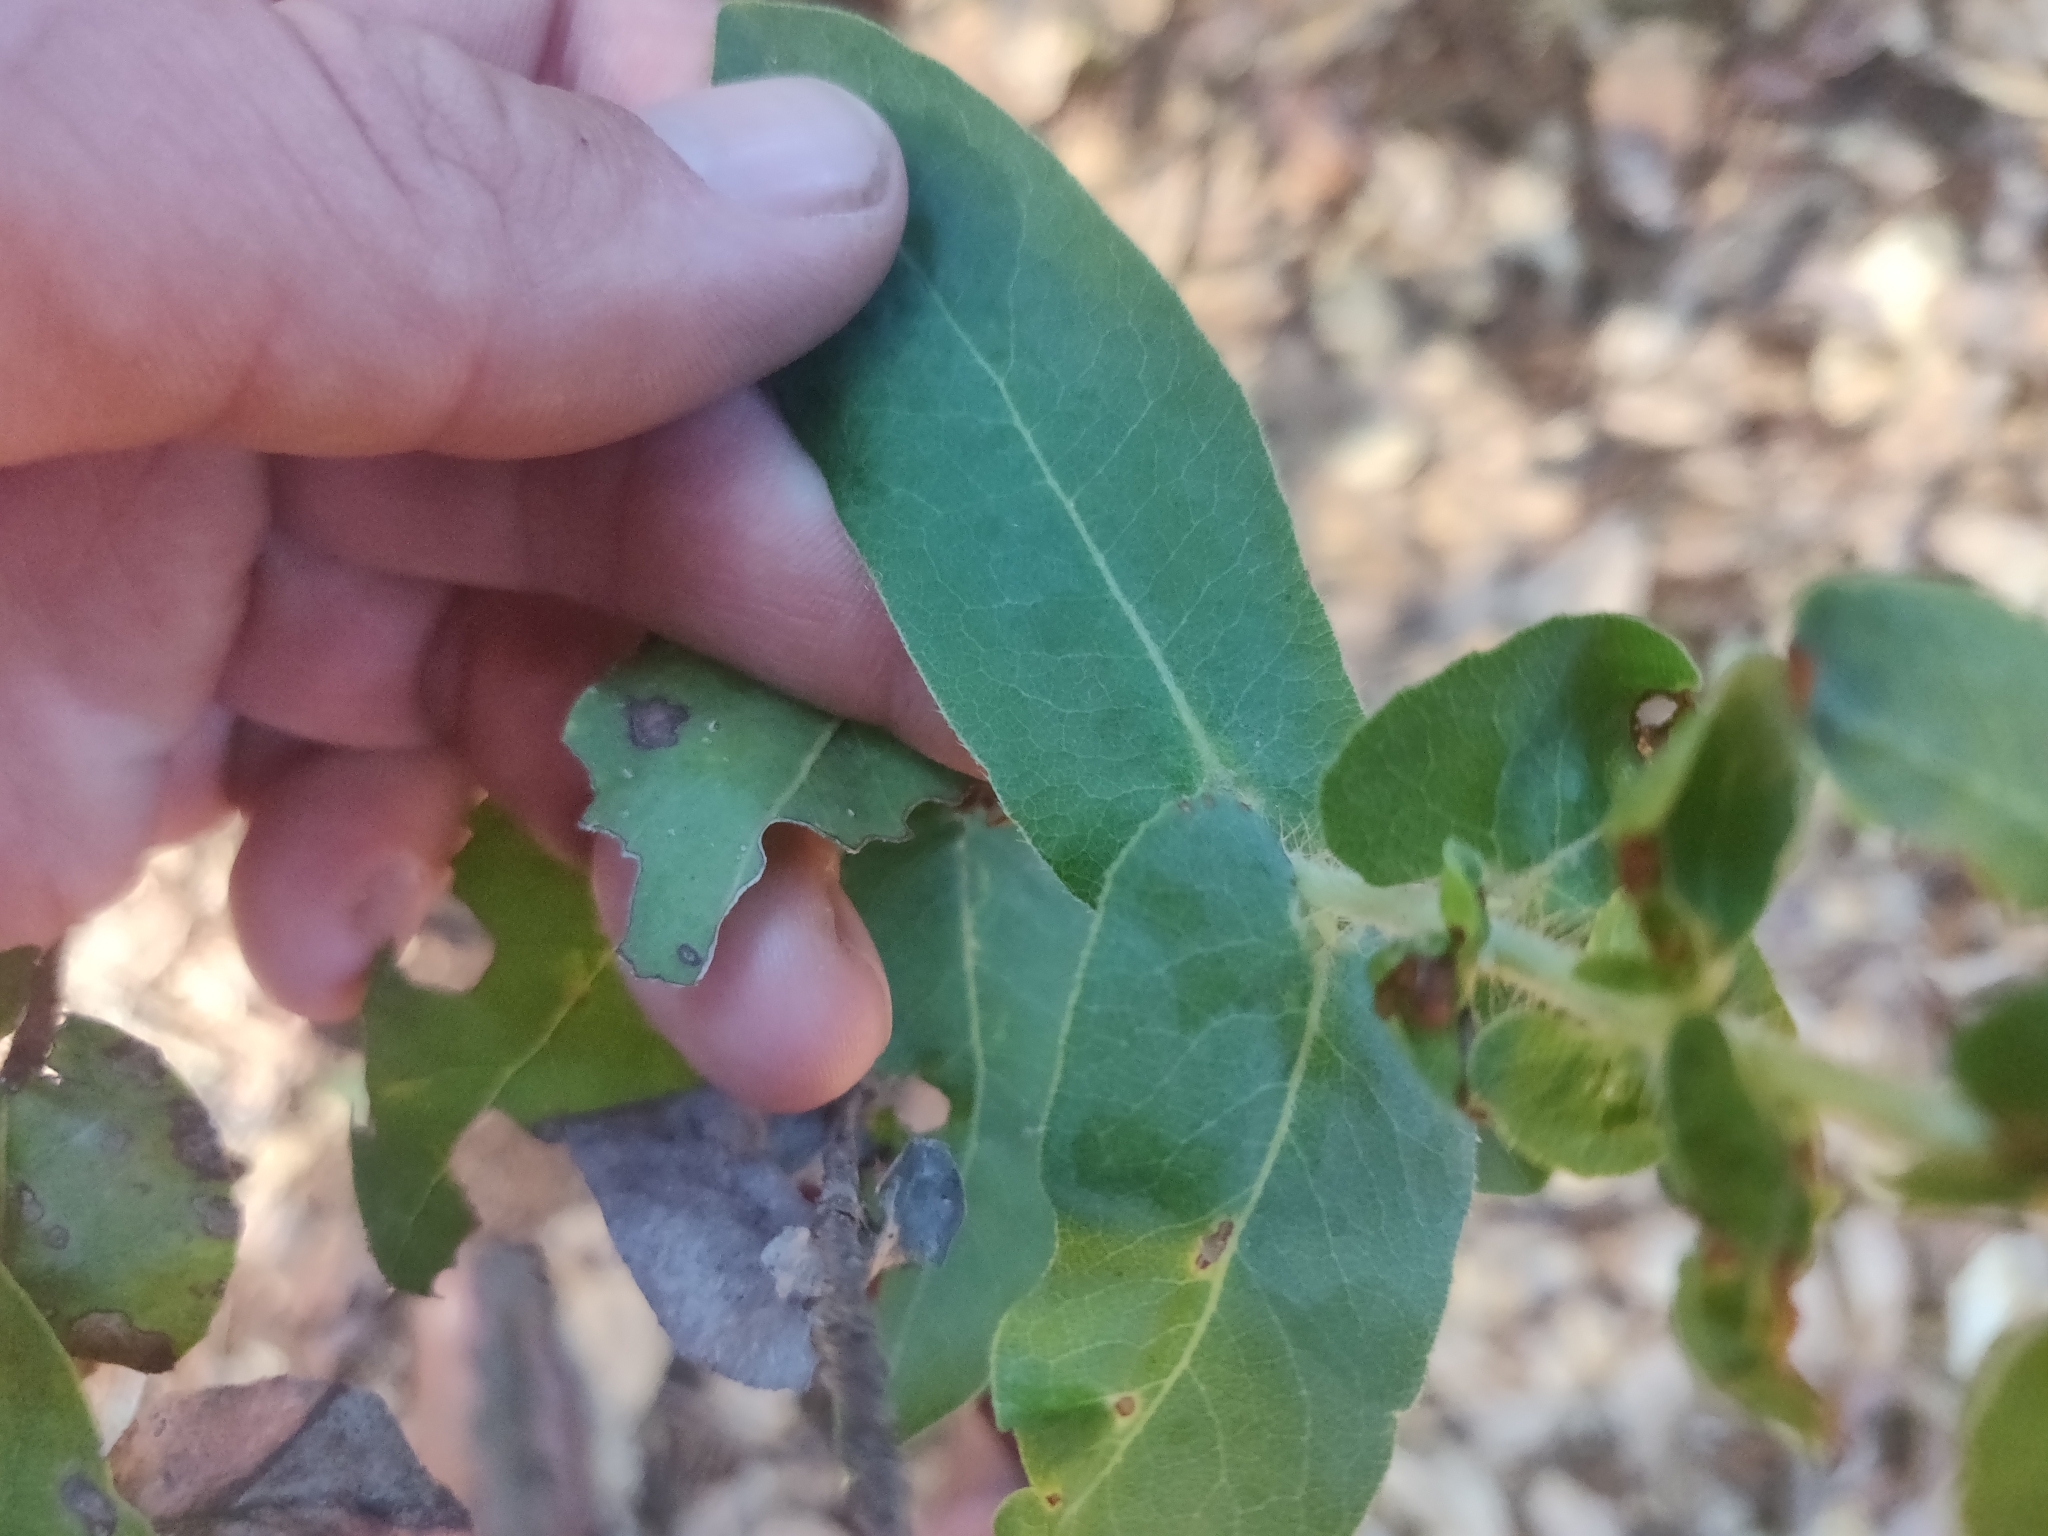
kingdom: Plantae
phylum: Tracheophyta
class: Magnoliopsida
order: Ericales
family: Ericaceae
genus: Arctostaphylos
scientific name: Arctostaphylos andersonii
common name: Santa cruz manzanita
